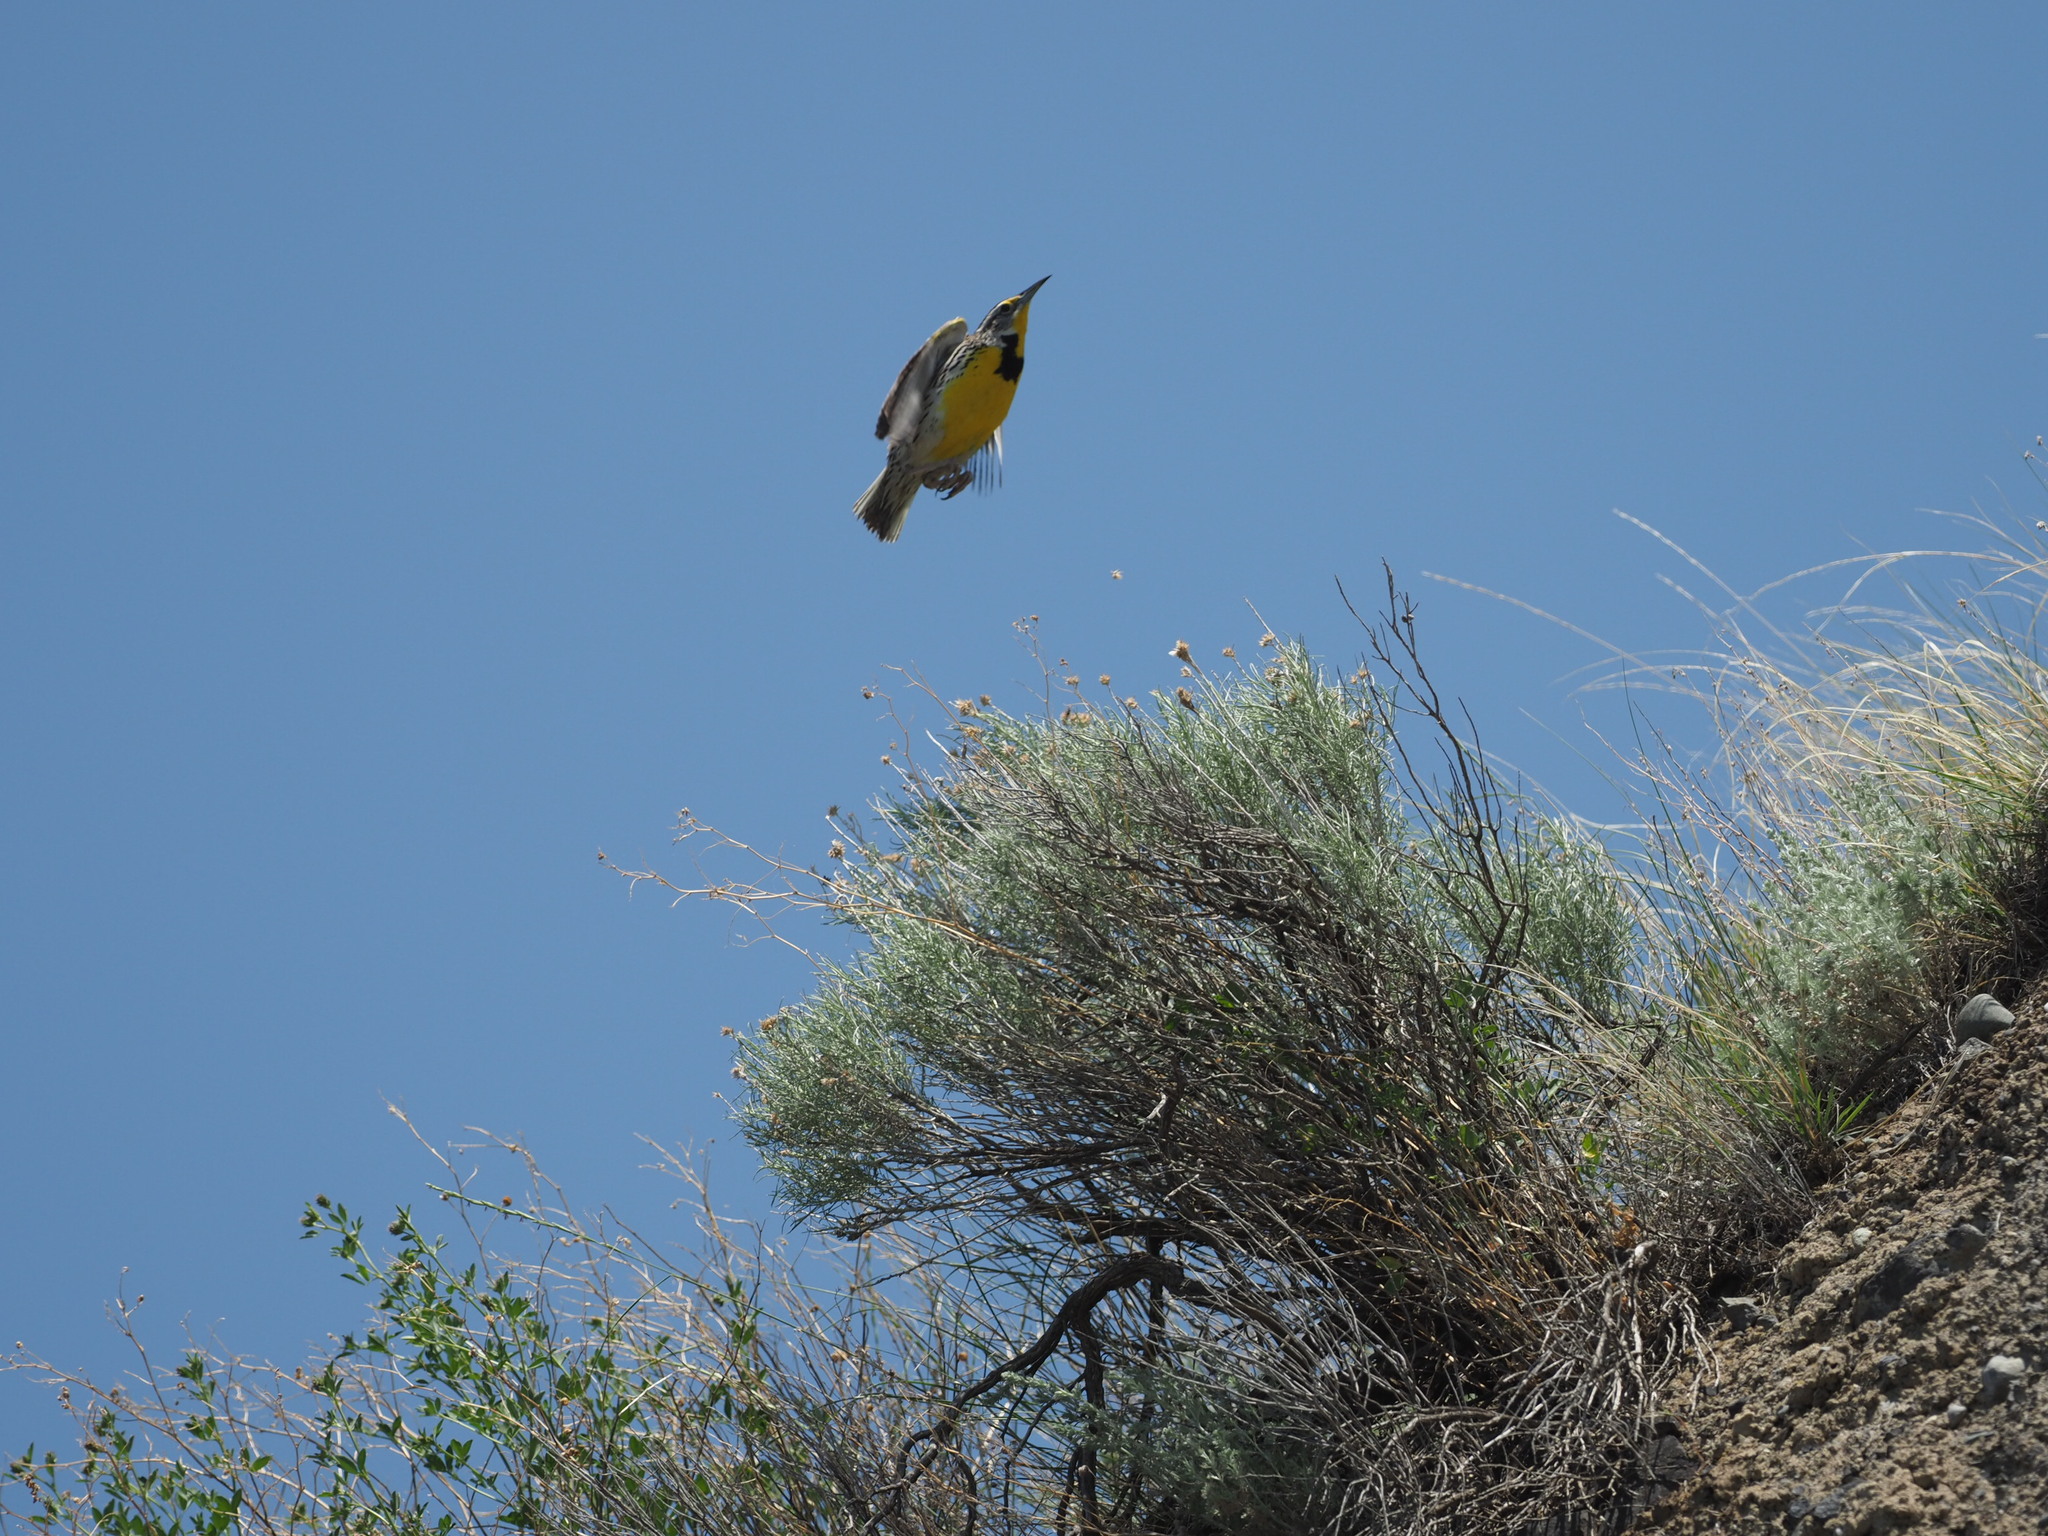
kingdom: Animalia
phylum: Chordata
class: Aves
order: Passeriformes
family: Icteridae
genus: Sturnella
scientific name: Sturnella neglecta
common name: Western meadowlark
